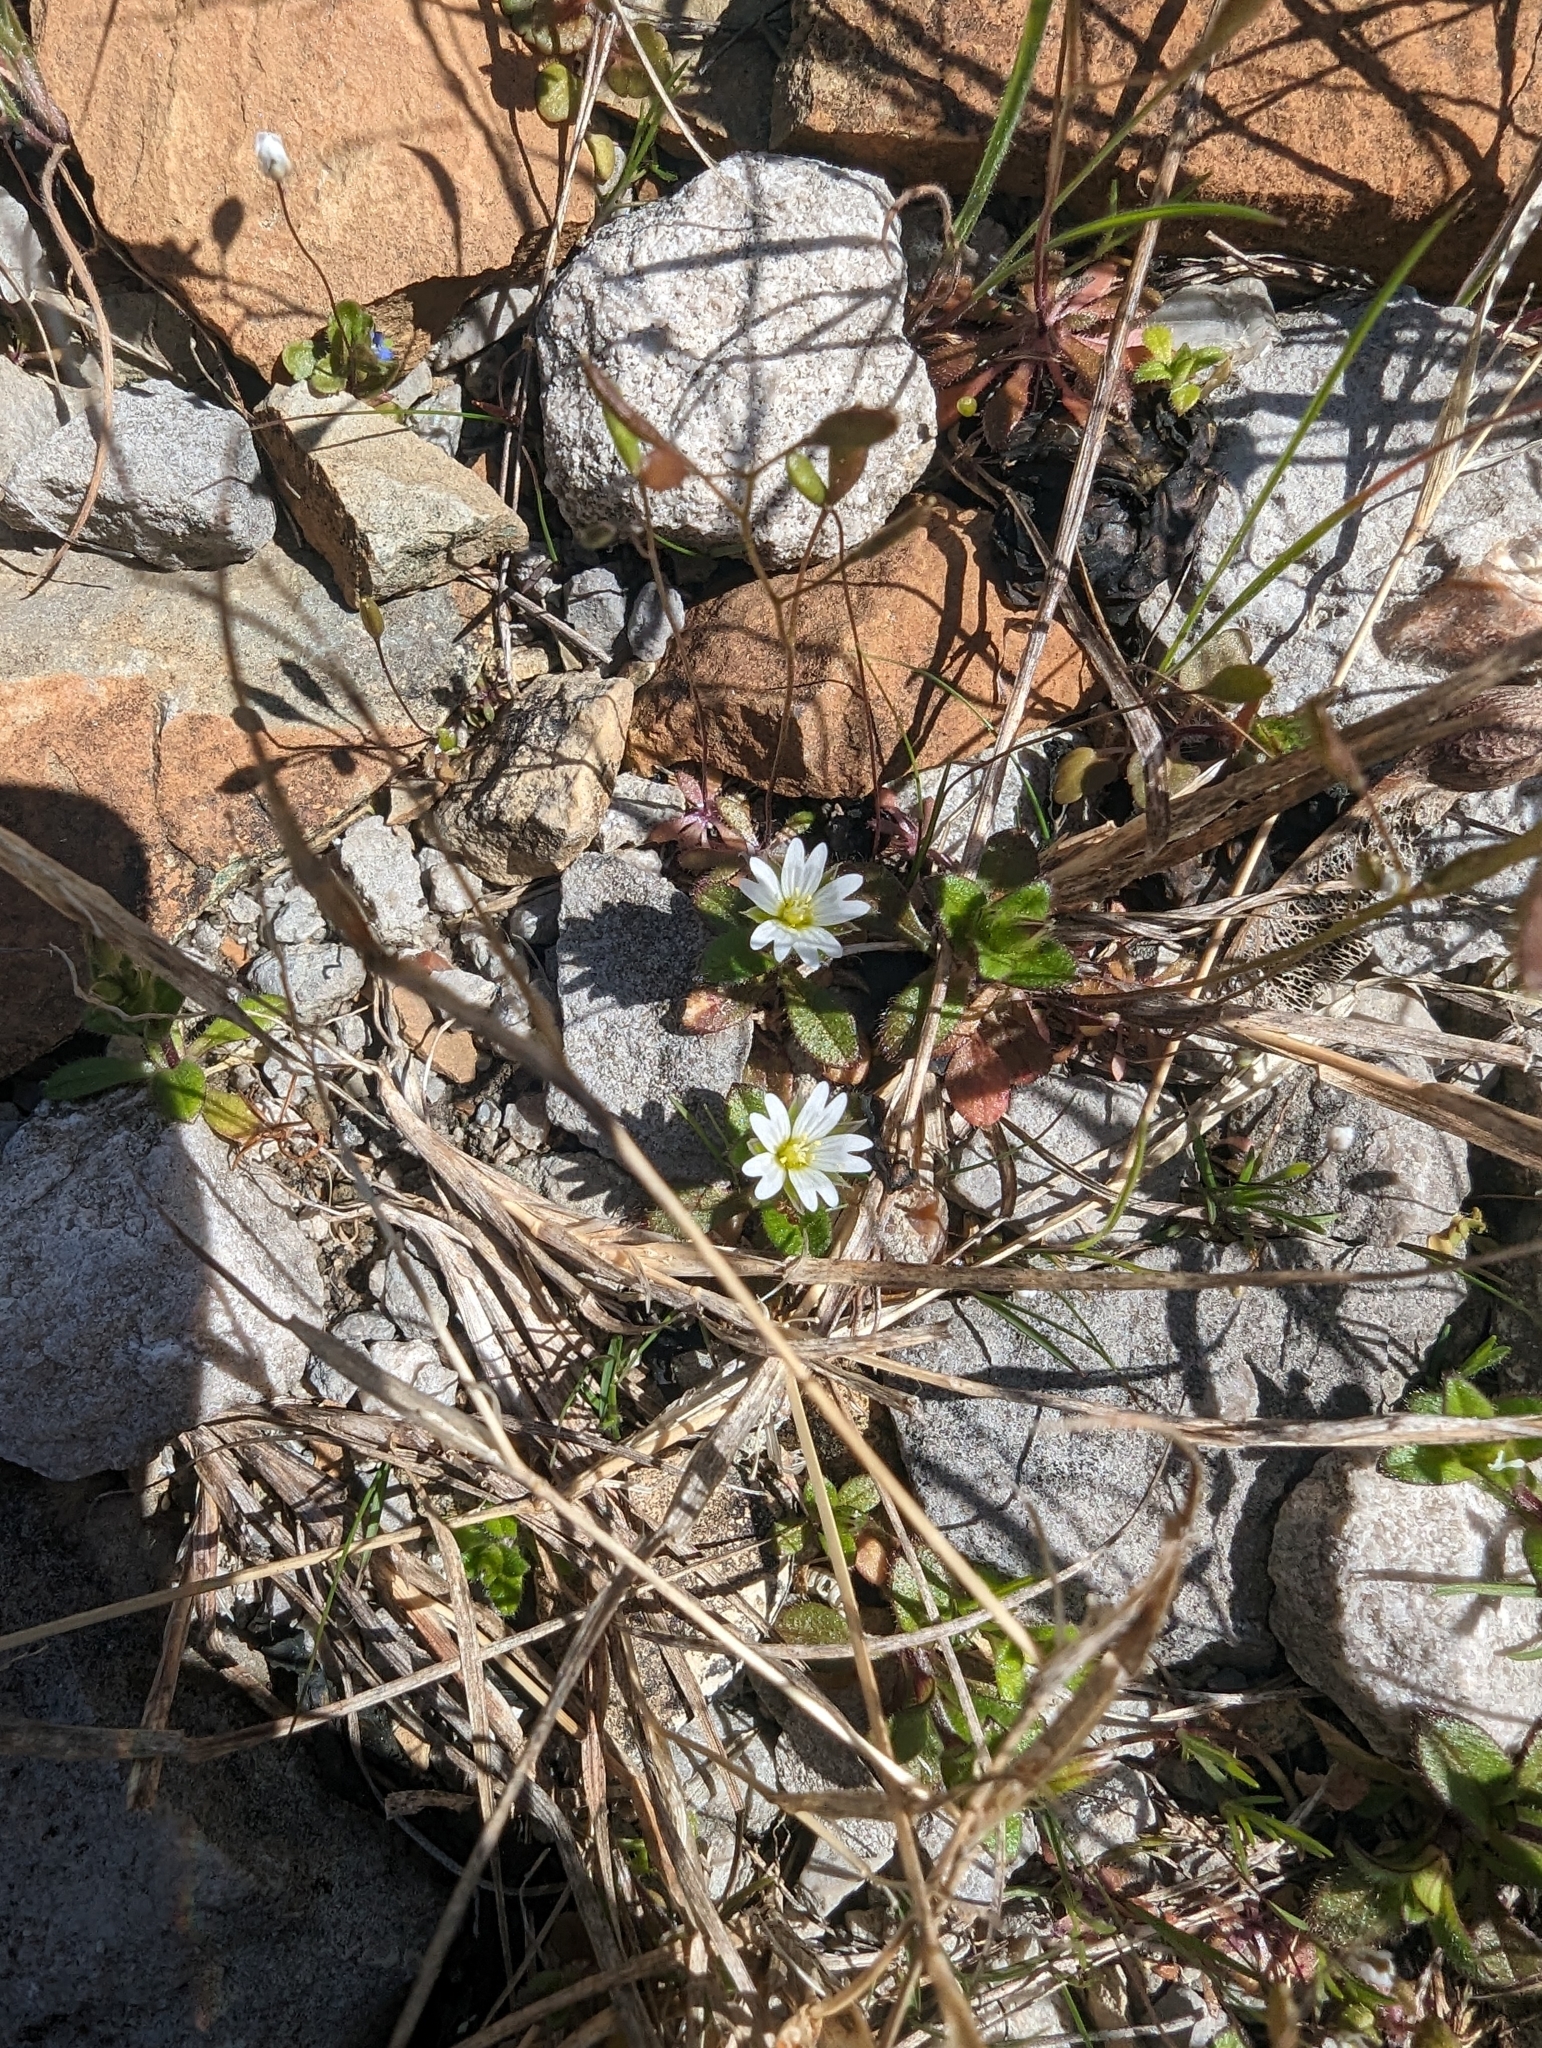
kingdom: Plantae
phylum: Tracheophyta
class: Magnoliopsida
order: Caryophyllales
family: Caryophyllaceae
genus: Cerastium
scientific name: Cerastium fontanum
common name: Common mouse-ear
